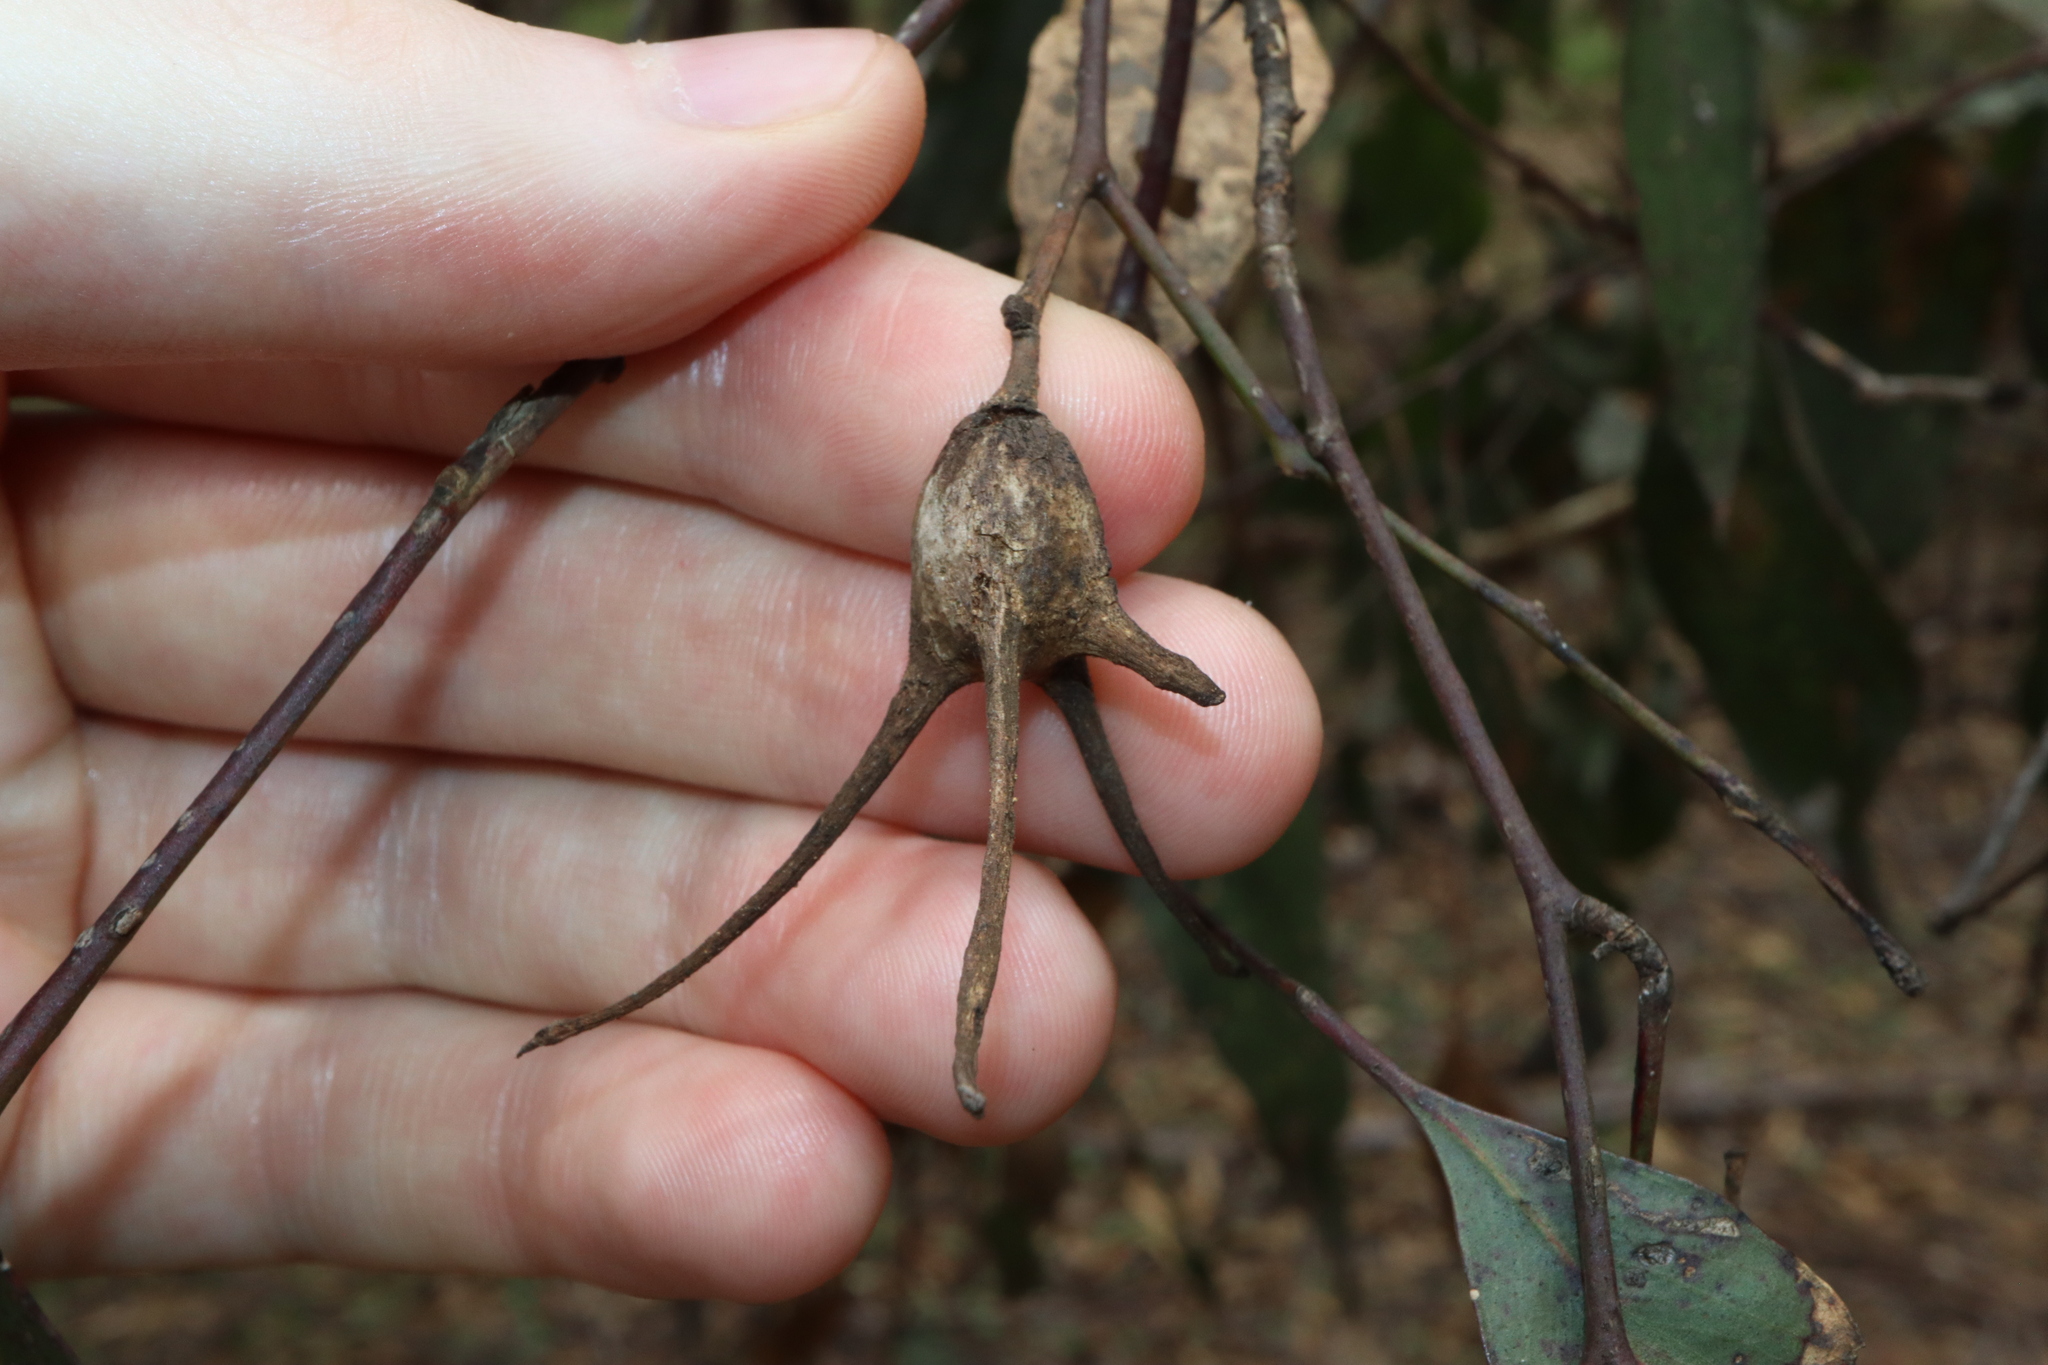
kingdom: Animalia
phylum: Arthropoda
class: Insecta
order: Hemiptera
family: Eriococcidae
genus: Apiomorpha
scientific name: Apiomorpha munita
